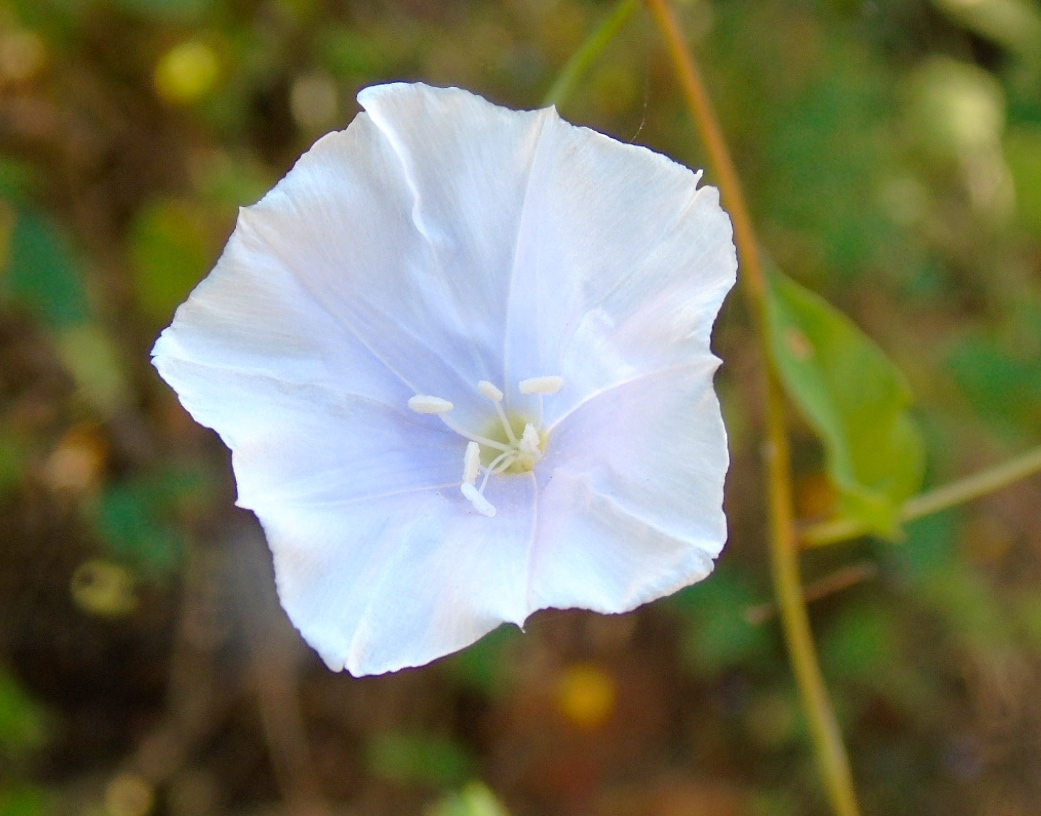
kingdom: Plantae
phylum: Tracheophyta
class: Magnoliopsida
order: Solanales
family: Convolvulaceae
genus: Jacquemontia
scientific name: Jacquemontia pentanthos
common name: Skyblue clustervine
